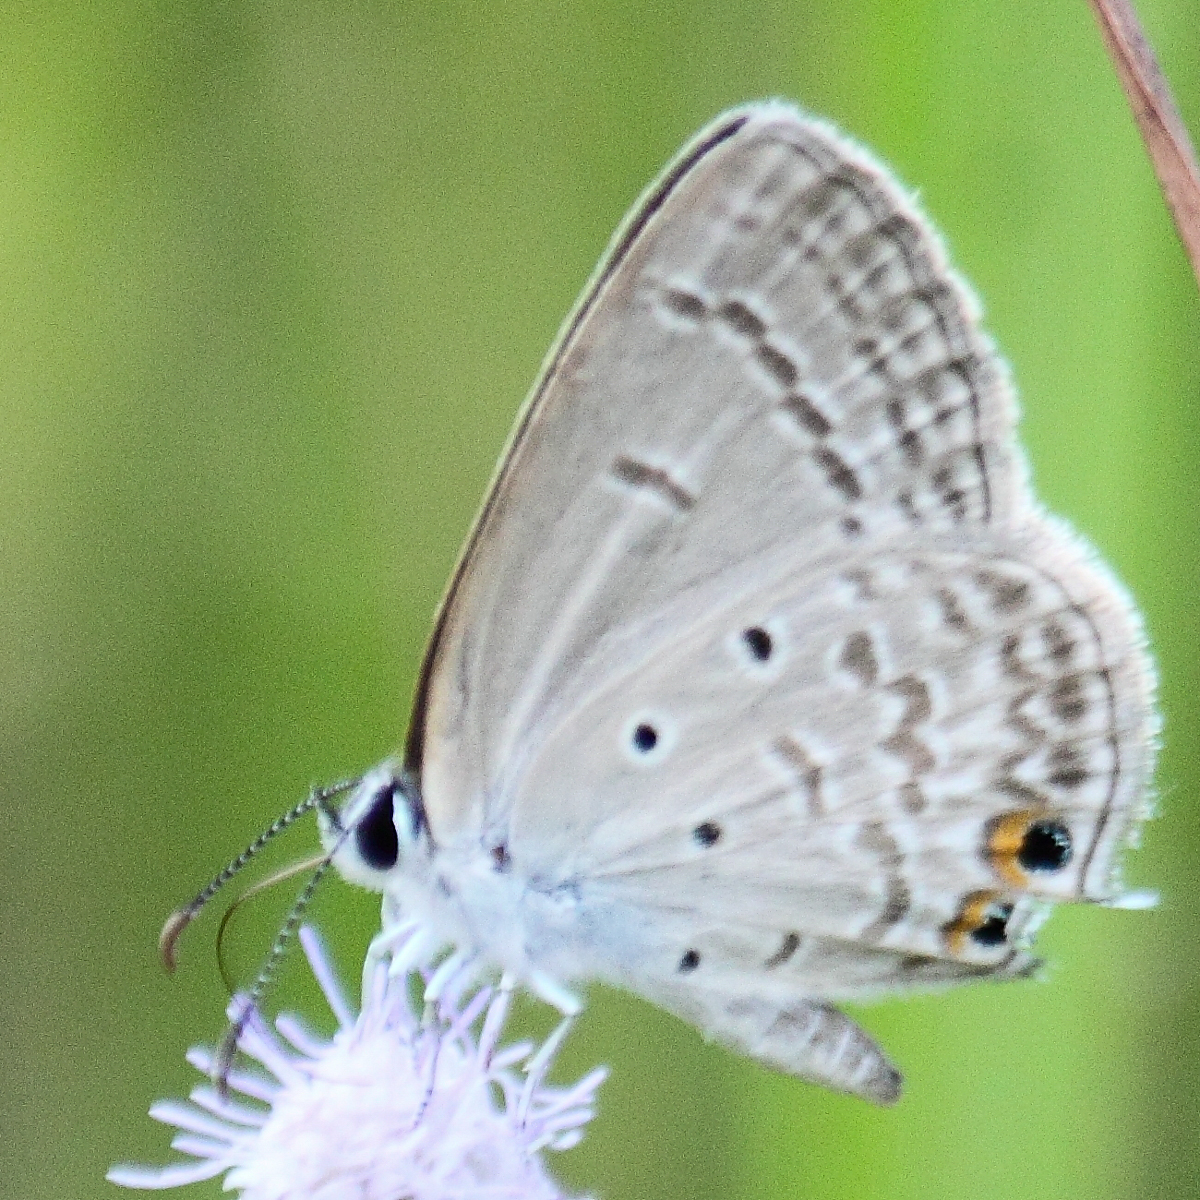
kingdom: Animalia
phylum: Arthropoda
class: Insecta
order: Lepidoptera
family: Lycaenidae
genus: Euchrysops
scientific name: Euchrysops cnejus
